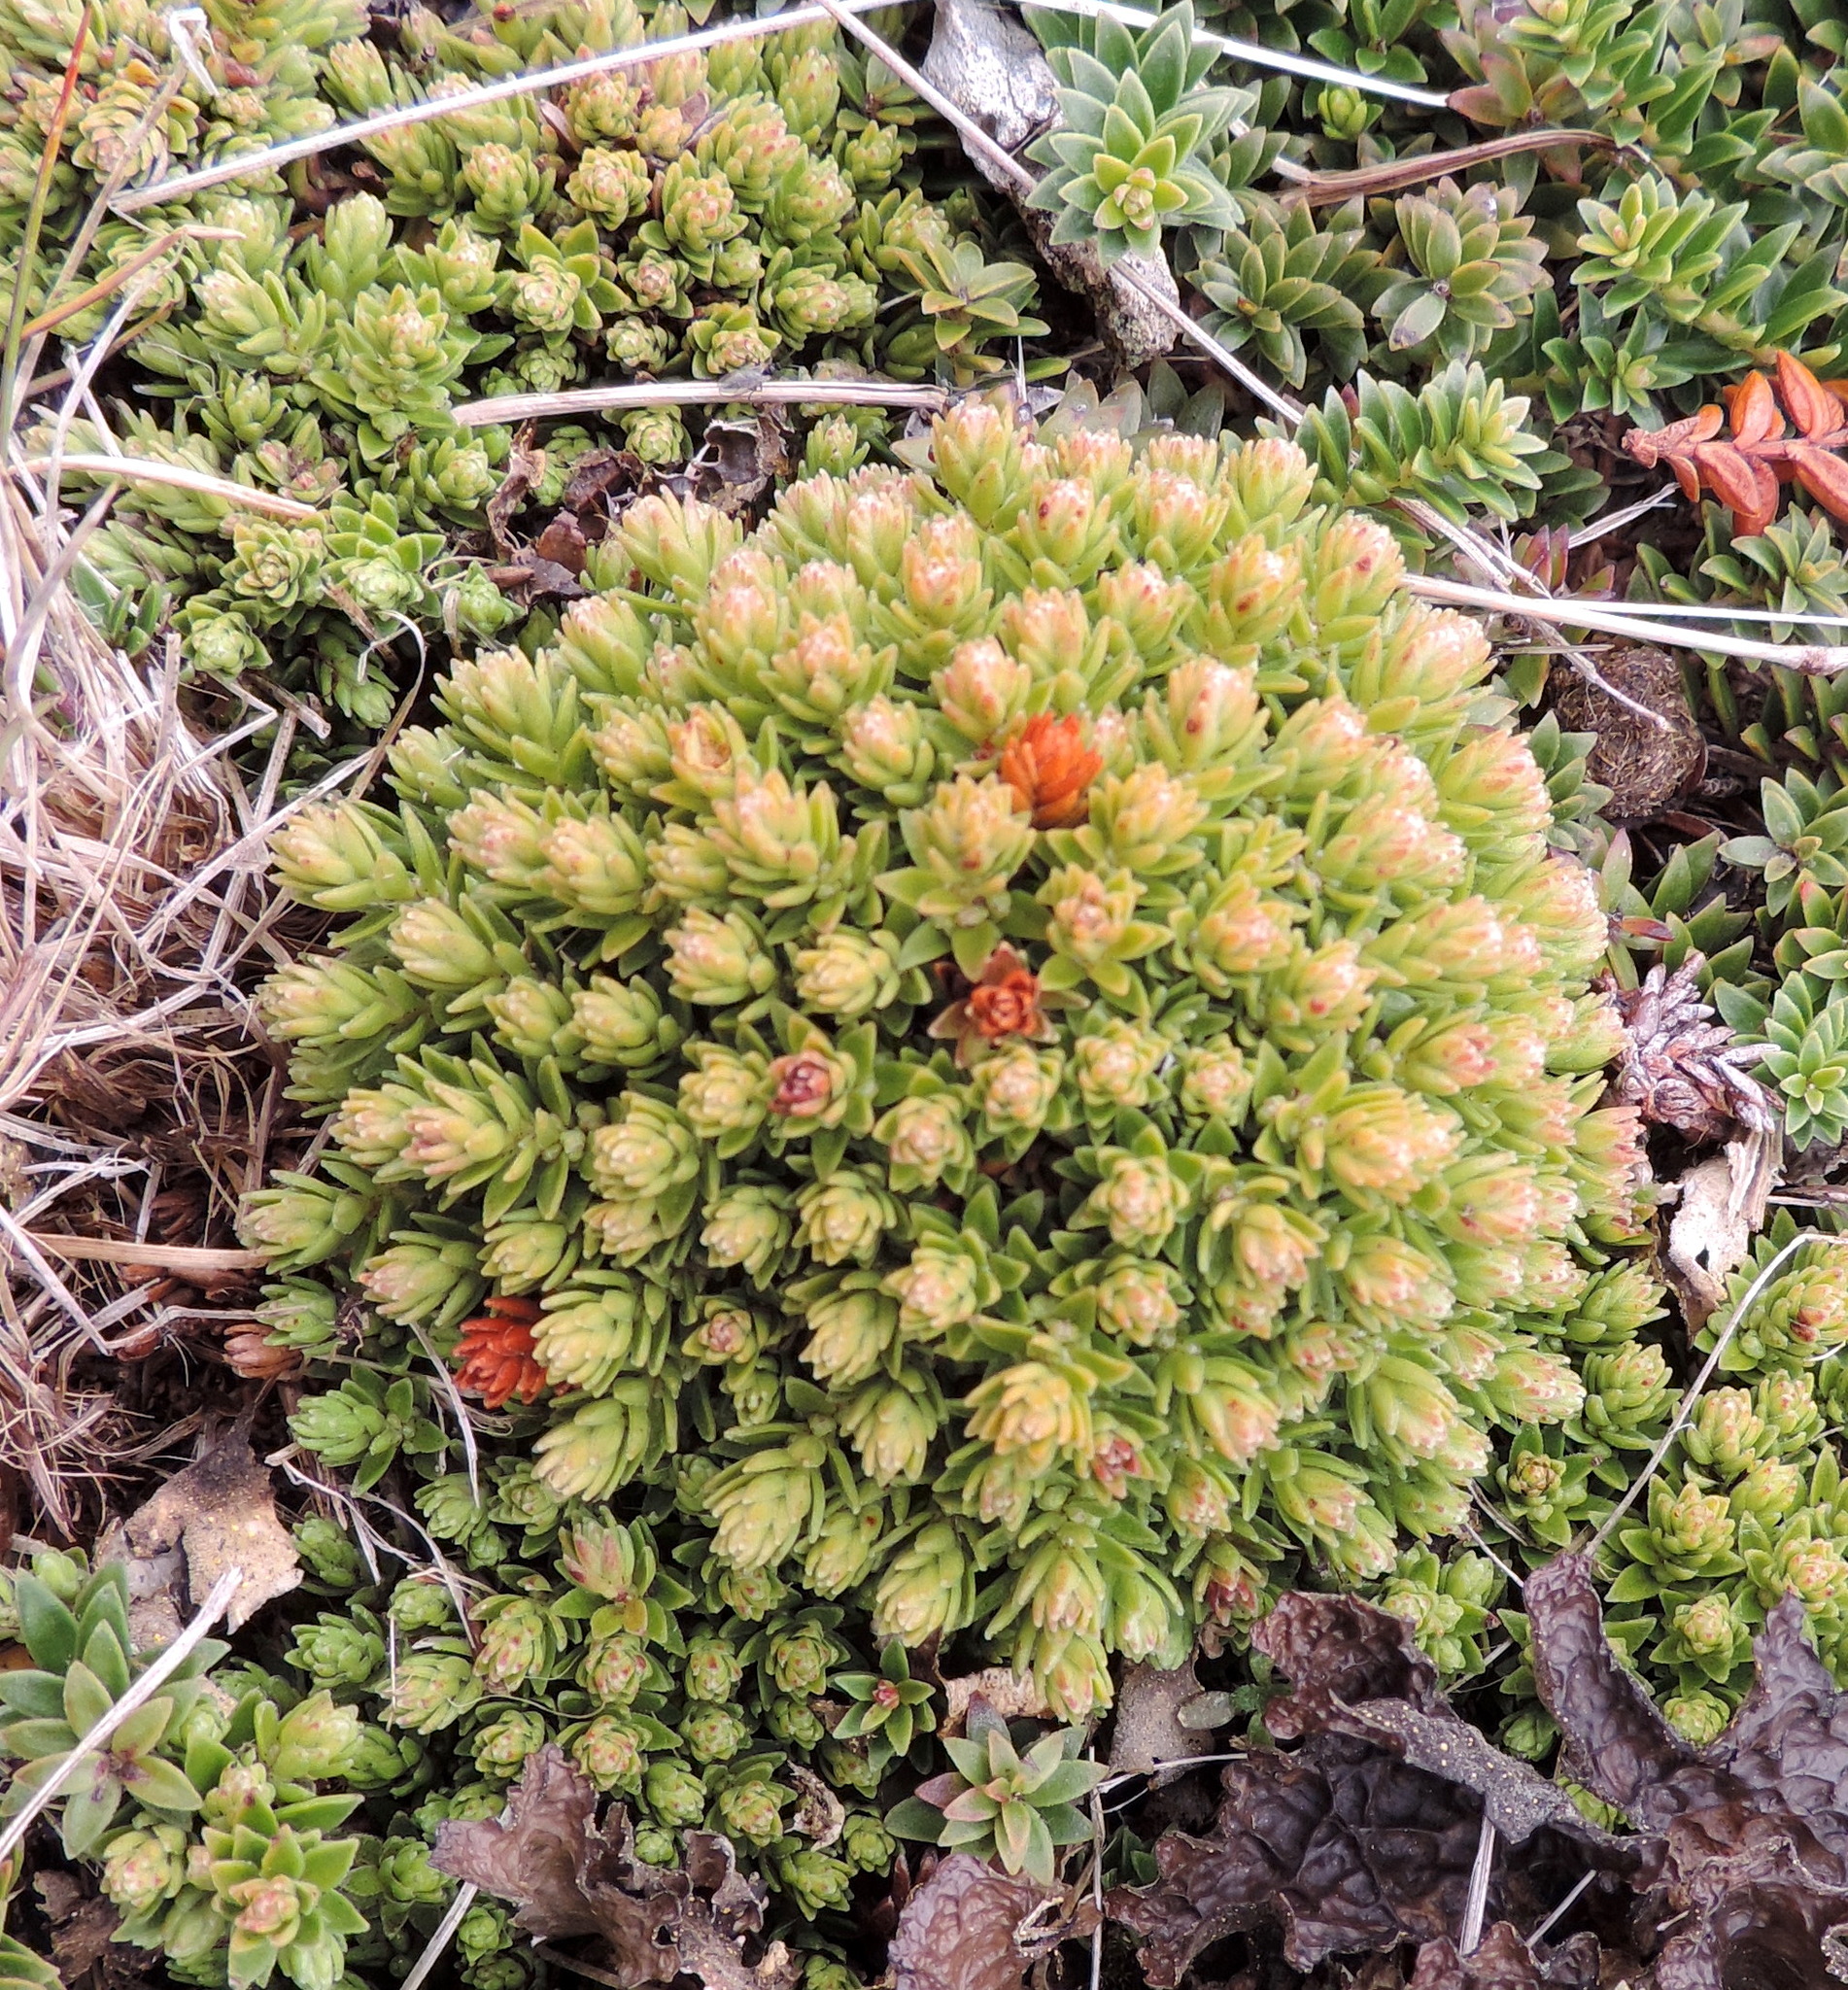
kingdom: Plantae
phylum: Tracheophyta
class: Magnoliopsida
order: Ericales
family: Ericaceae
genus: Gaultheria
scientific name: Gaultheria pumila
